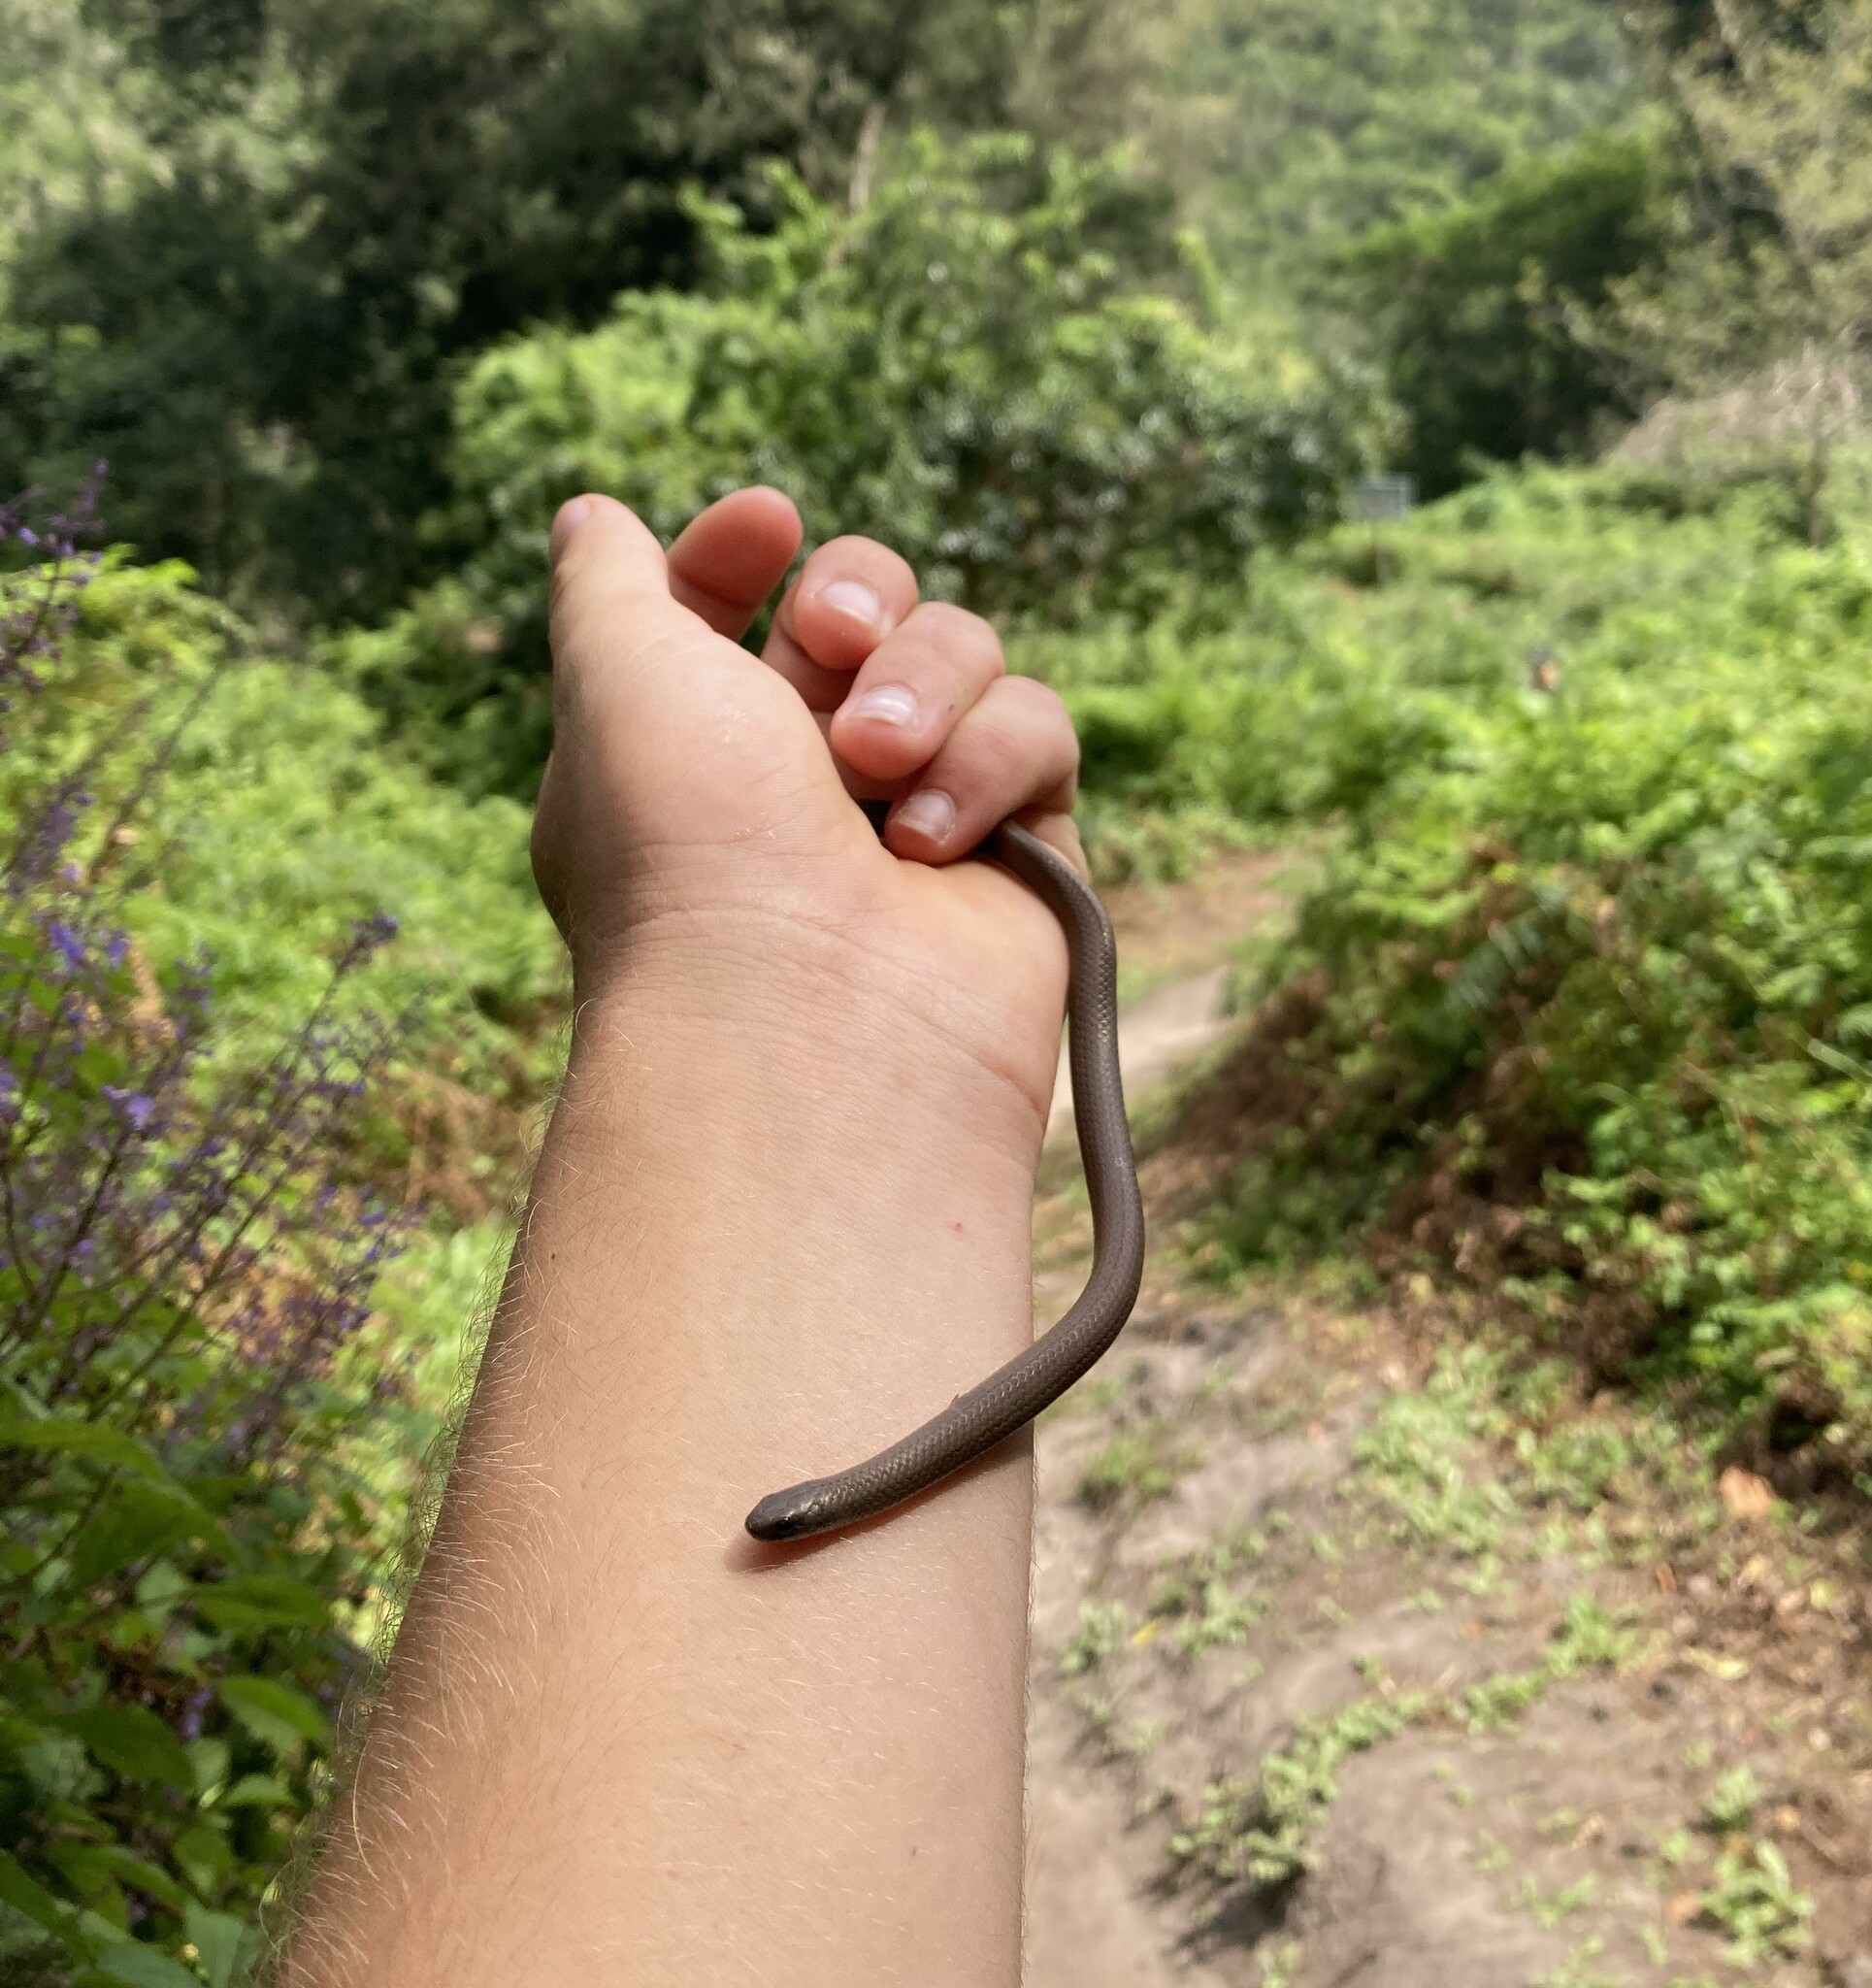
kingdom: Animalia
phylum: Chordata
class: Squamata
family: Pseudoxyrhophiidae
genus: Duberria
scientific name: Duberria lutrix
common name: Common slug eater
